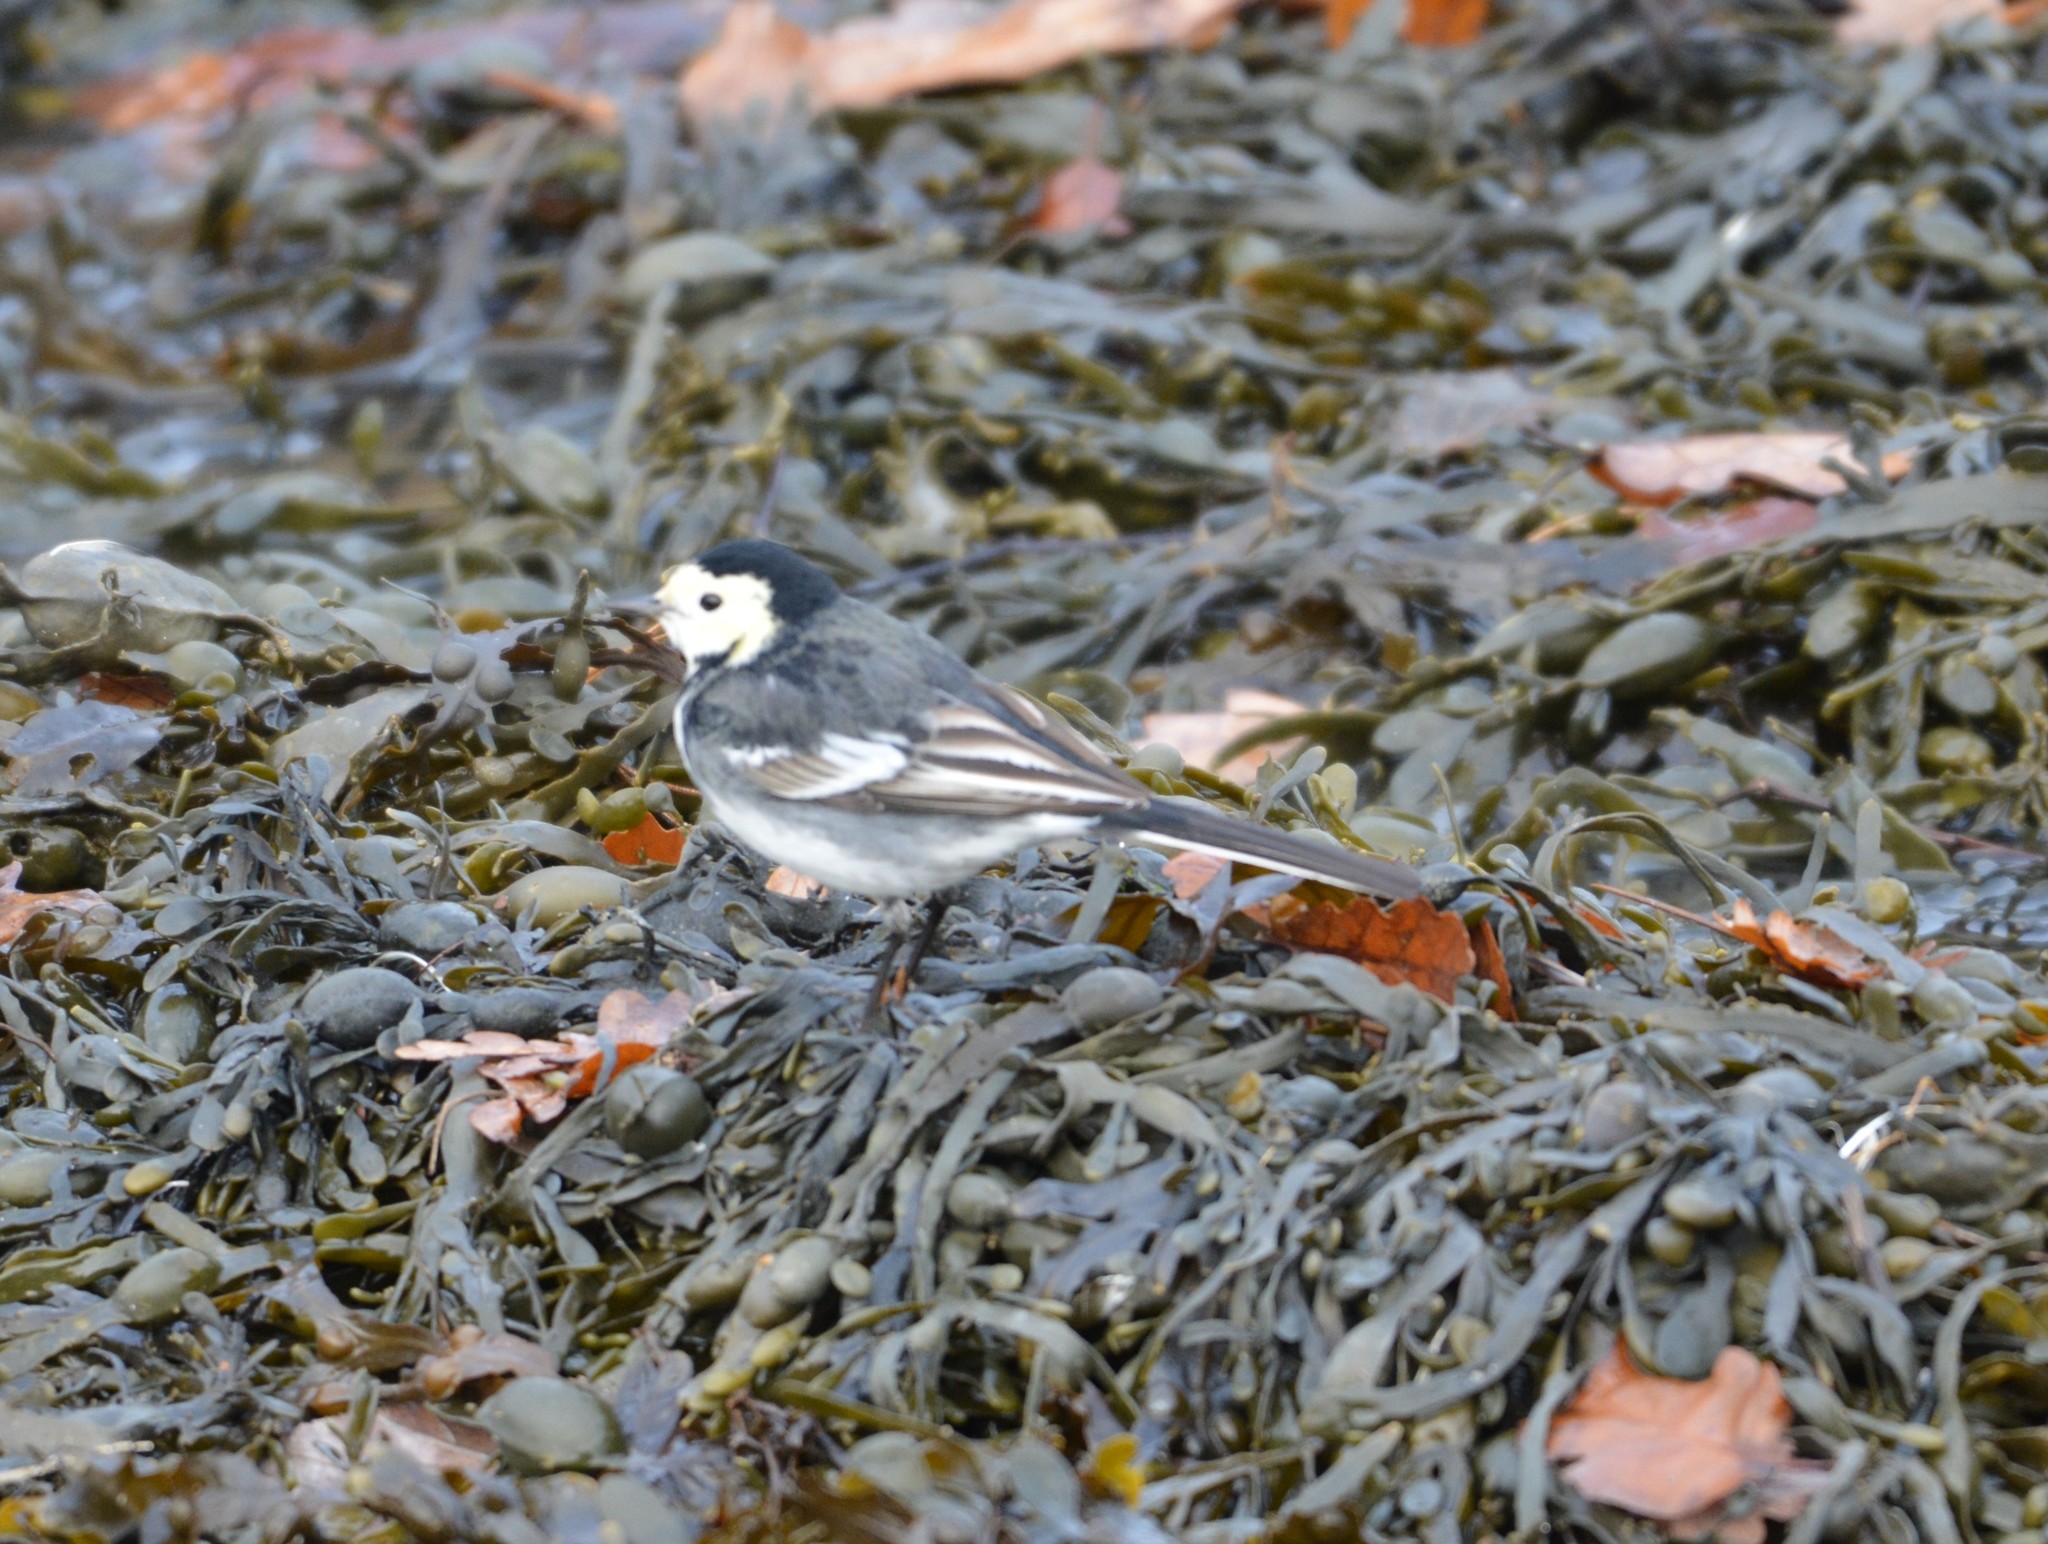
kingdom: Animalia
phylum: Chordata
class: Aves
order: Passeriformes
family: Motacillidae
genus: Motacilla
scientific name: Motacilla alba
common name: White wagtail
